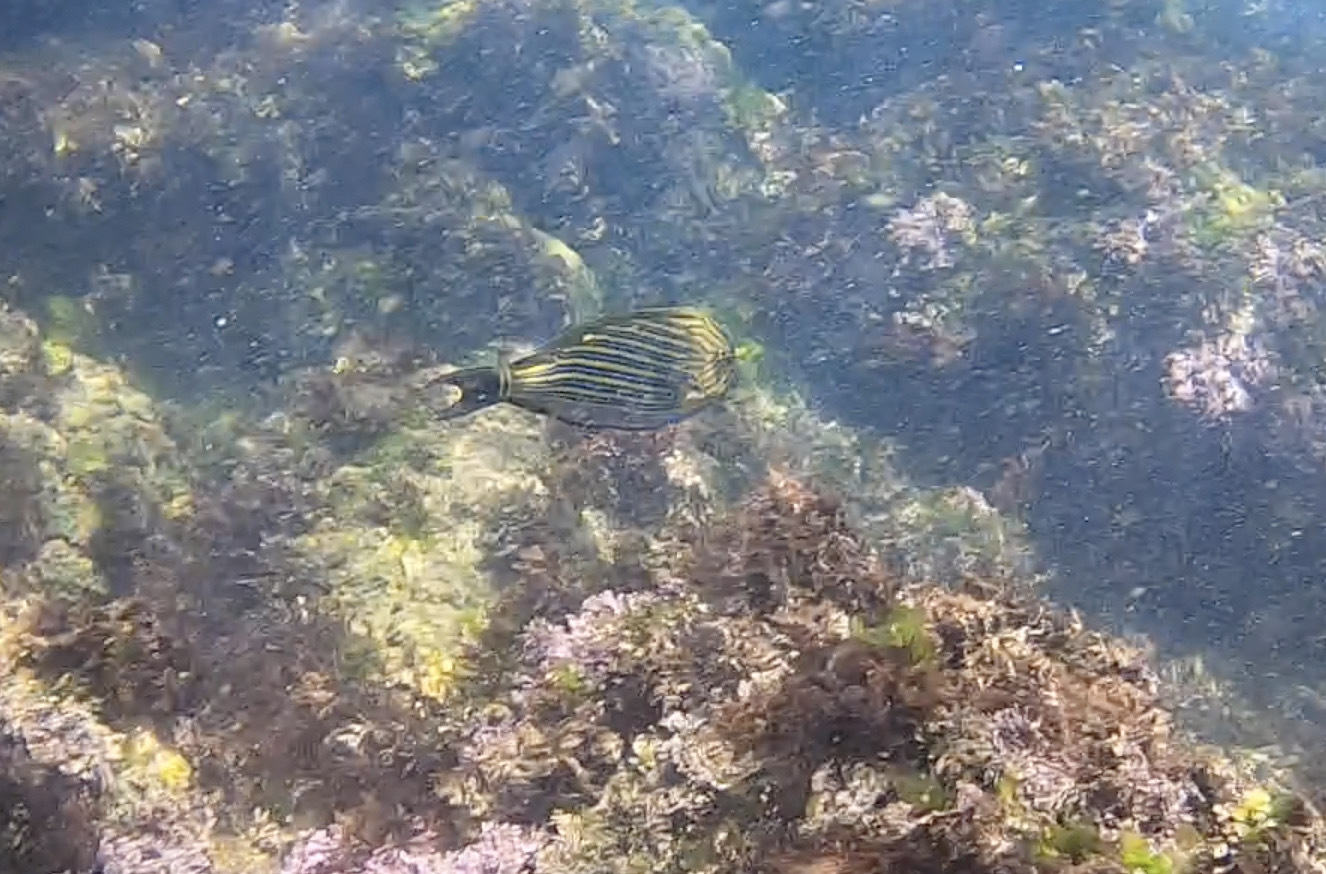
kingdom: Animalia
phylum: Chordata
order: Perciformes
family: Acanthuridae
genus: Acanthurus
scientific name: Acanthurus lineatus
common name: Striped surgeonfish
